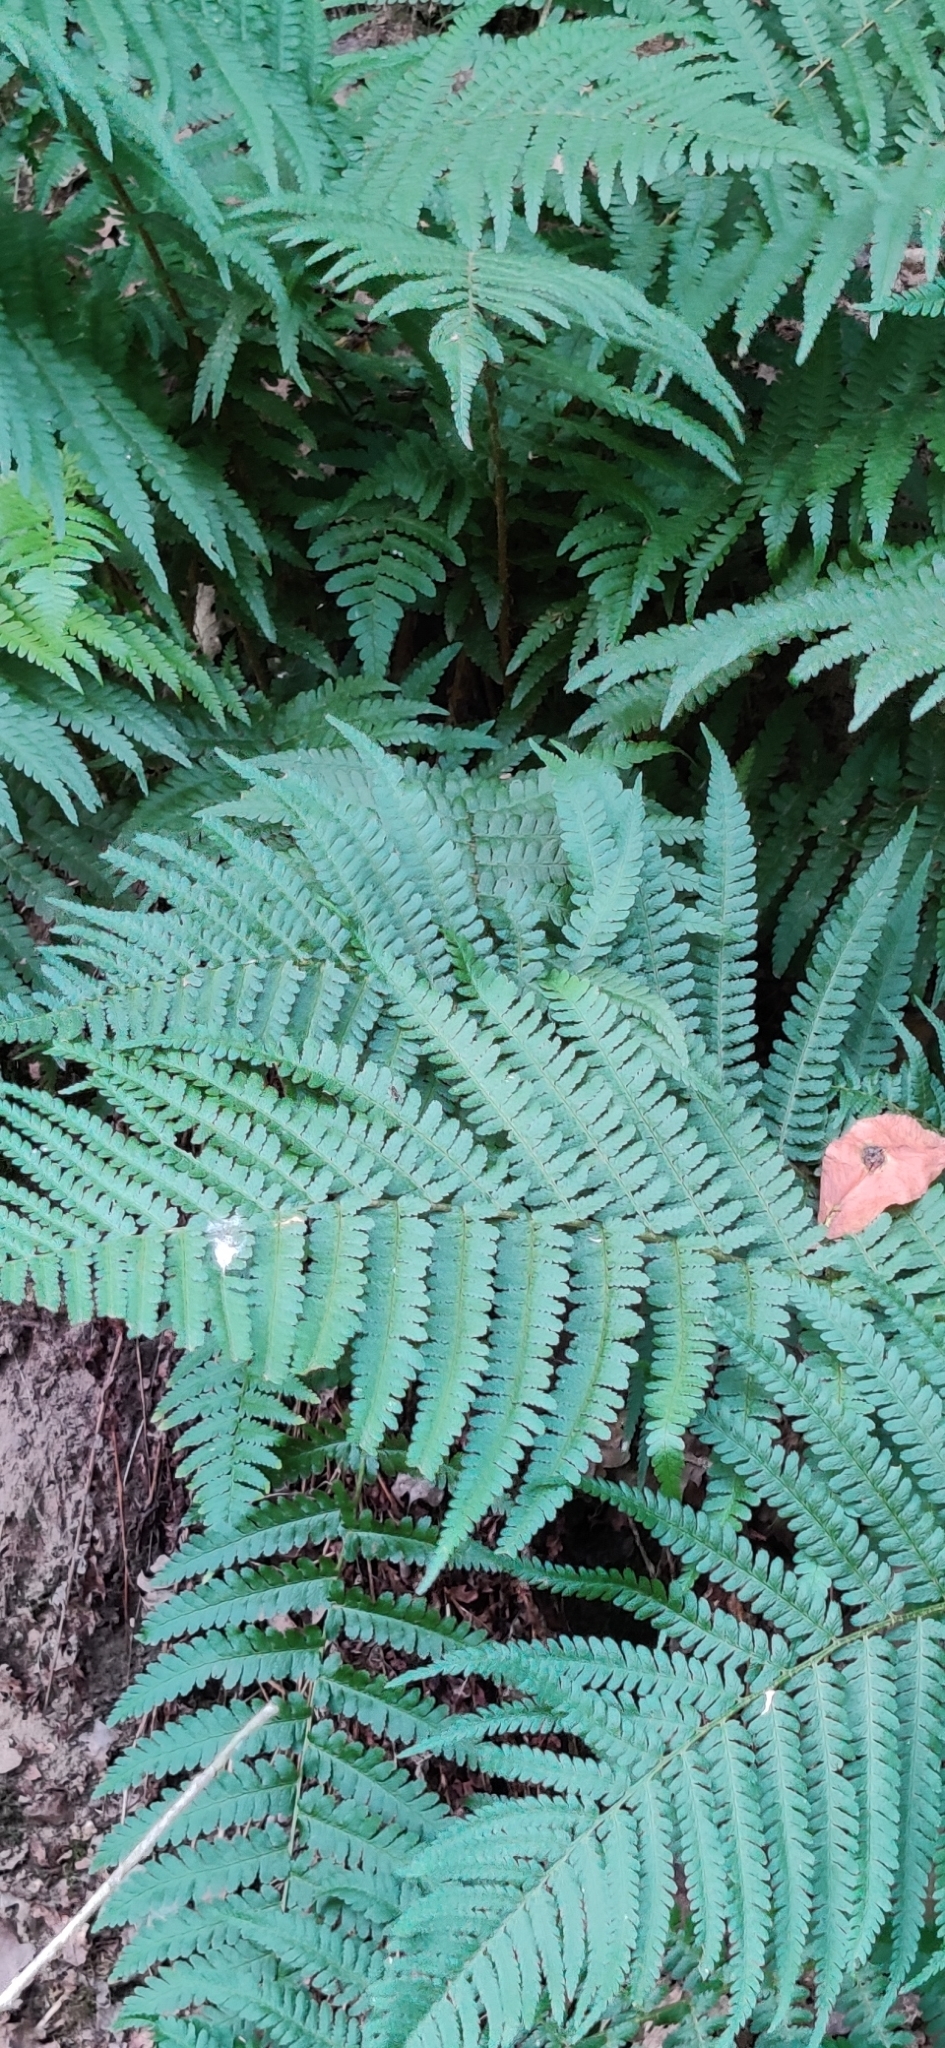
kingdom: Plantae
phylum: Tracheophyta
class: Polypodiopsida
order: Polypodiales
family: Dryopteridaceae
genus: Dryopteris
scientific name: Dryopteris filix-mas
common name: Male fern
